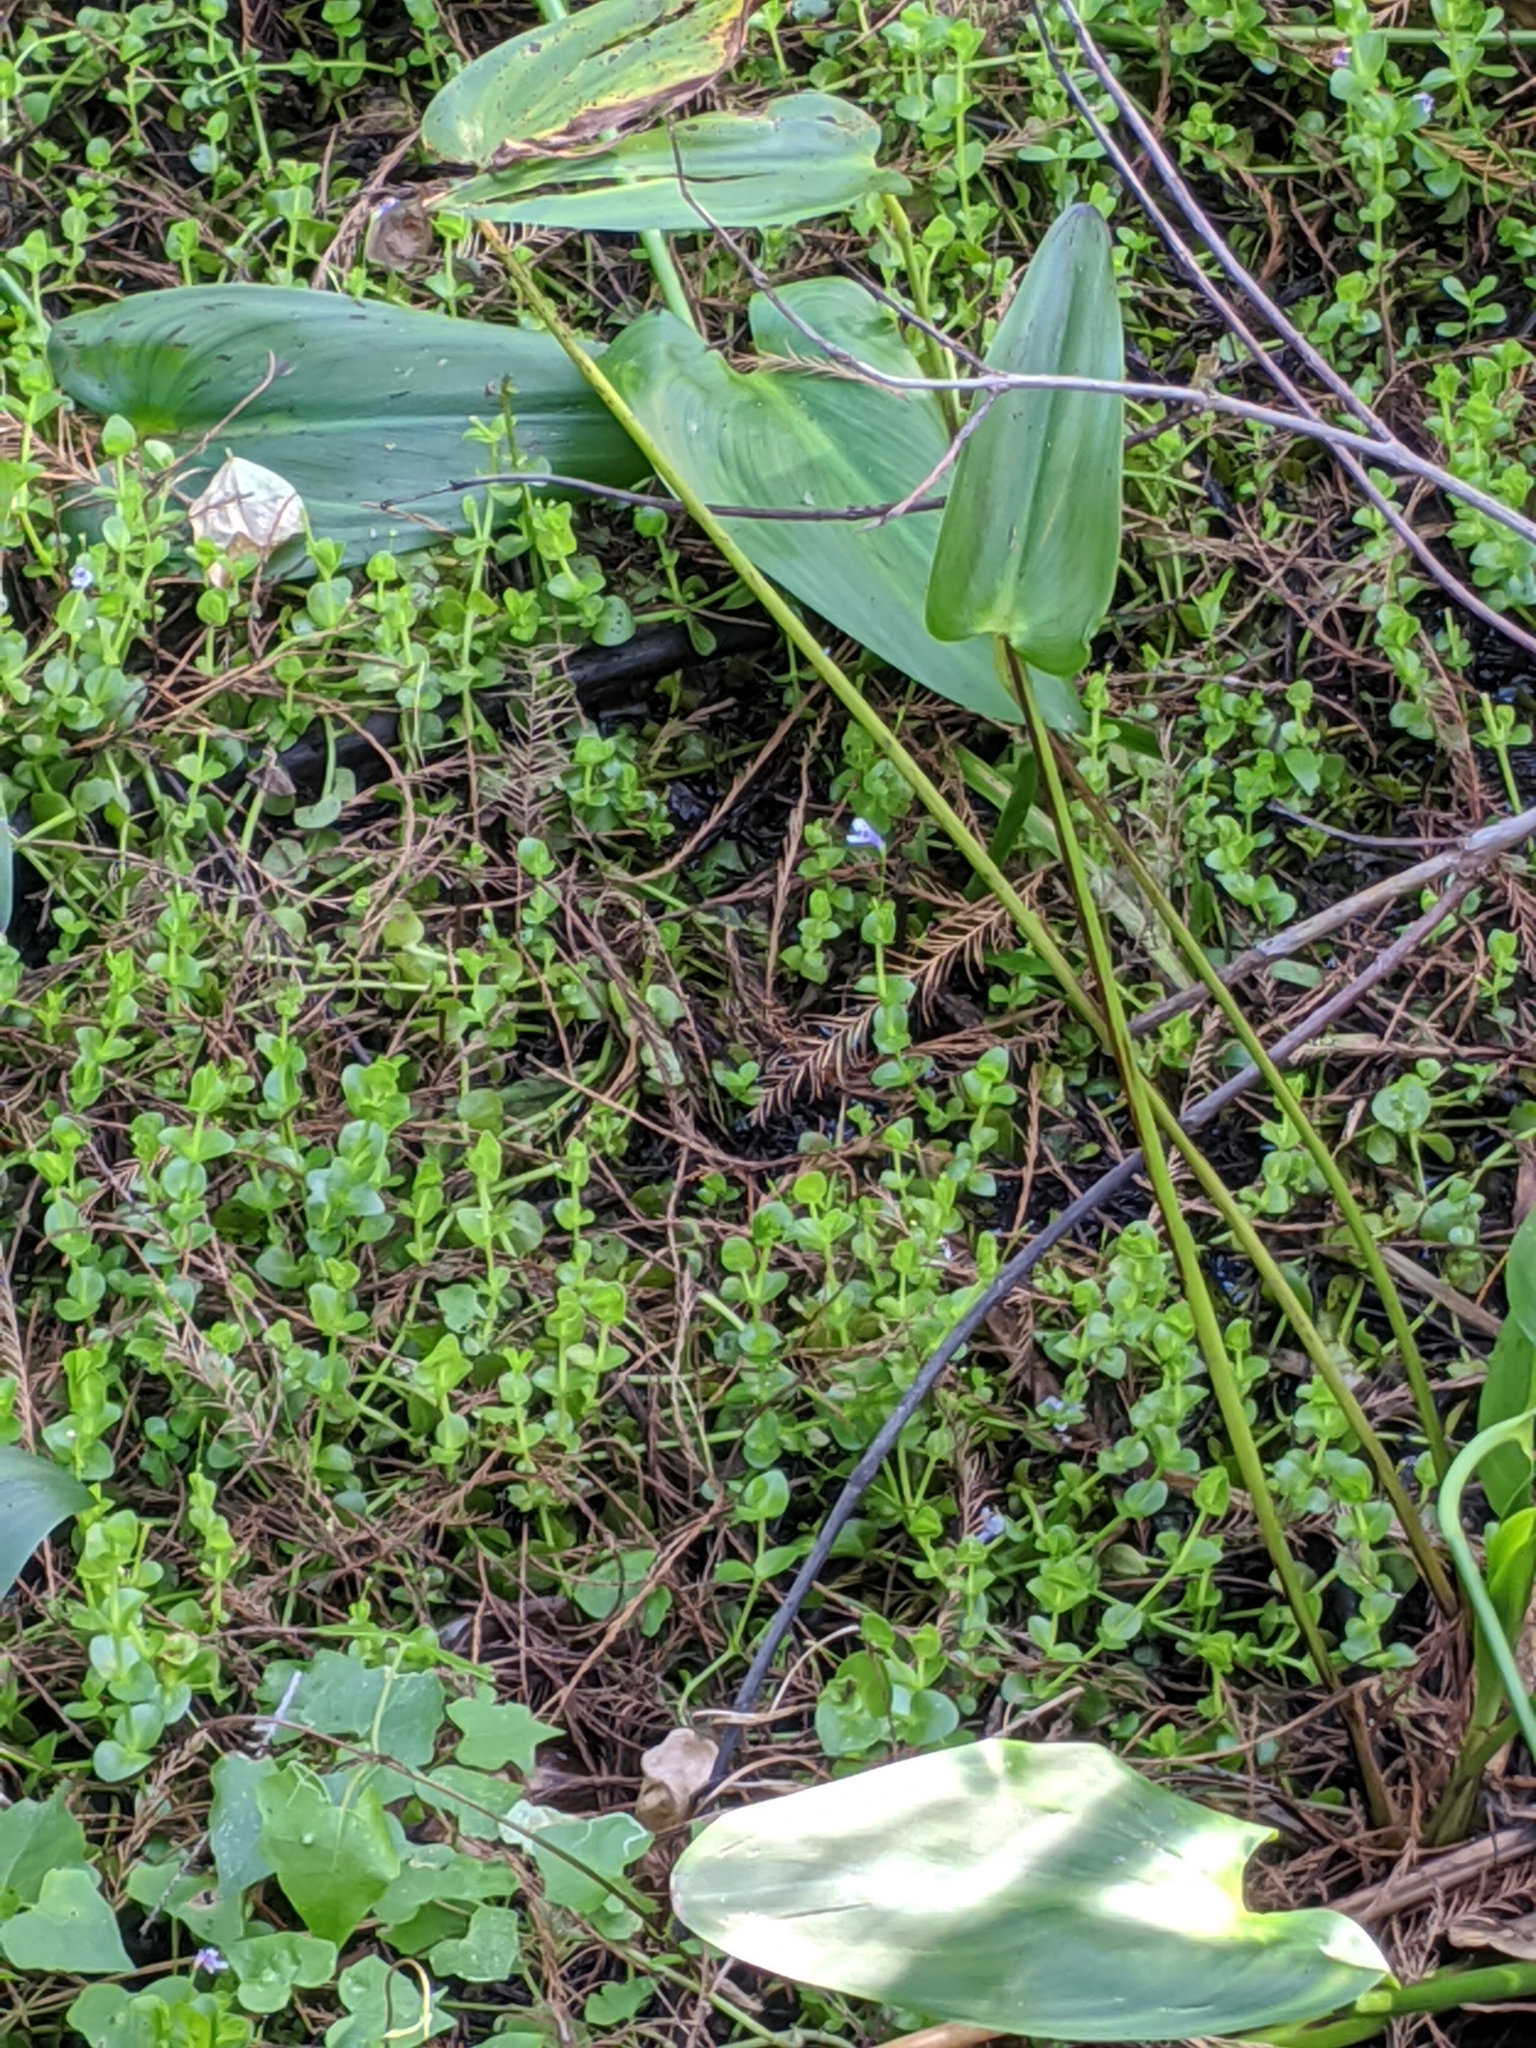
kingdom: Plantae
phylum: Tracheophyta
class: Magnoliopsida
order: Lamiales
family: Linderniaceae
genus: Lindernia
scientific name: Lindernia grandiflora
